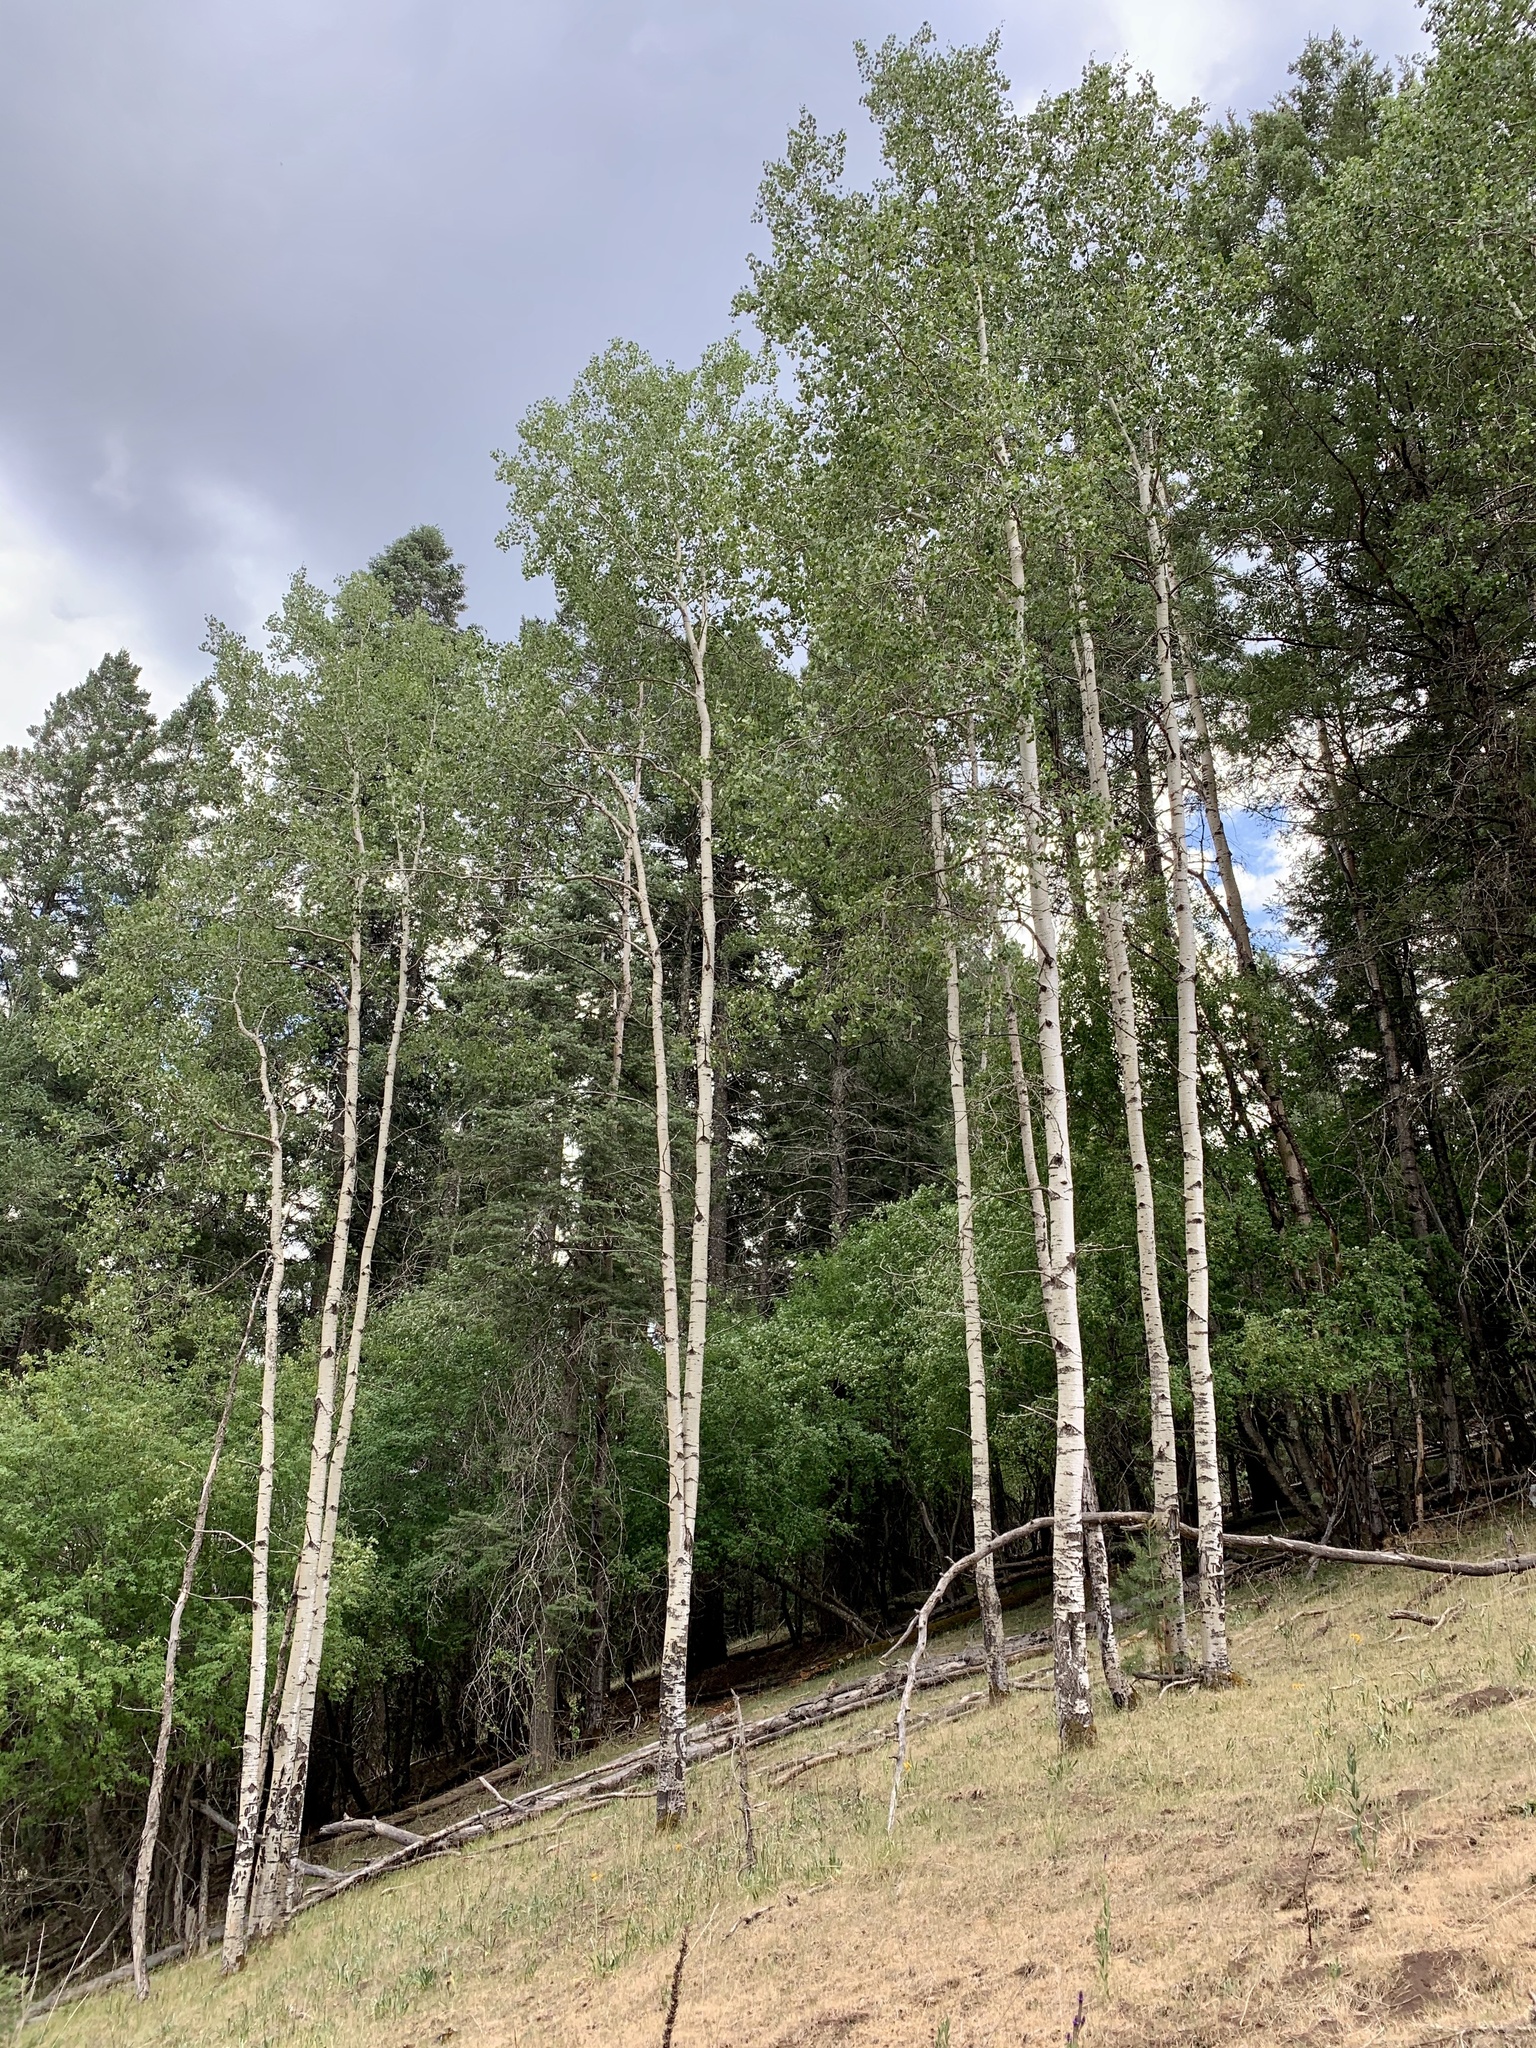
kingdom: Plantae
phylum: Tracheophyta
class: Magnoliopsida
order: Malpighiales
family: Salicaceae
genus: Populus
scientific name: Populus tremuloides
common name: Quaking aspen
